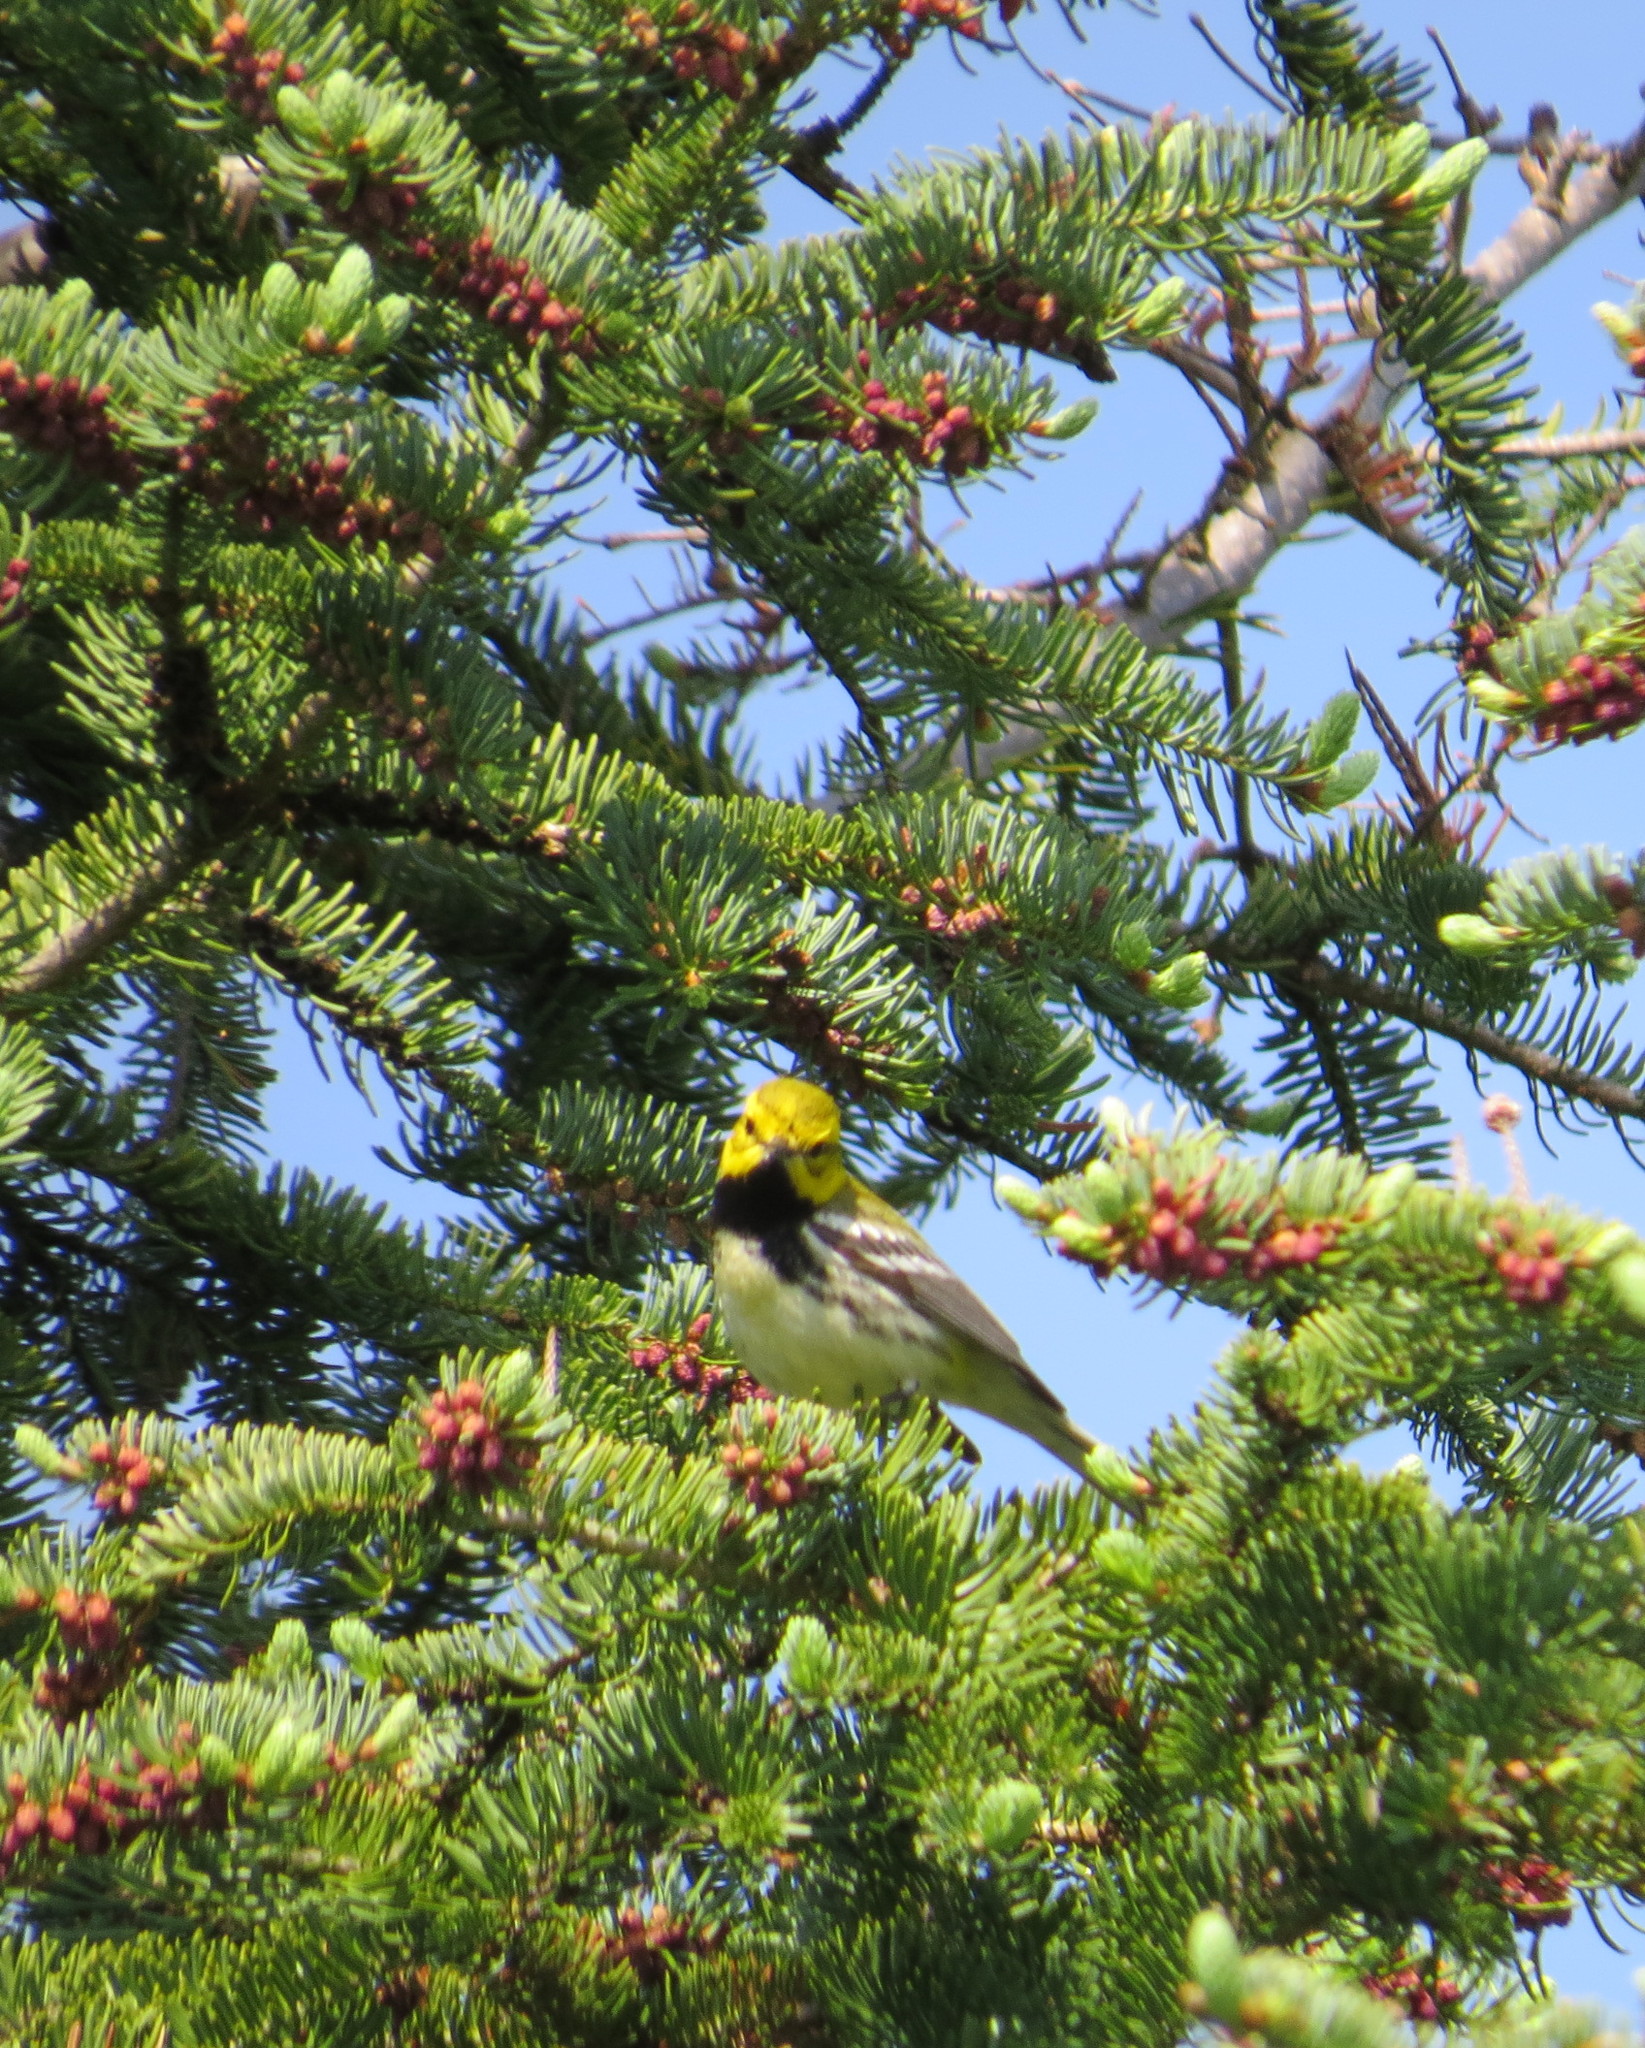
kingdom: Animalia
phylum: Chordata
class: Aves
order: Passeriformes
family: Parulidae
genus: Setophaga
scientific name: Setophaga virens
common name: Black-throated green warbler
